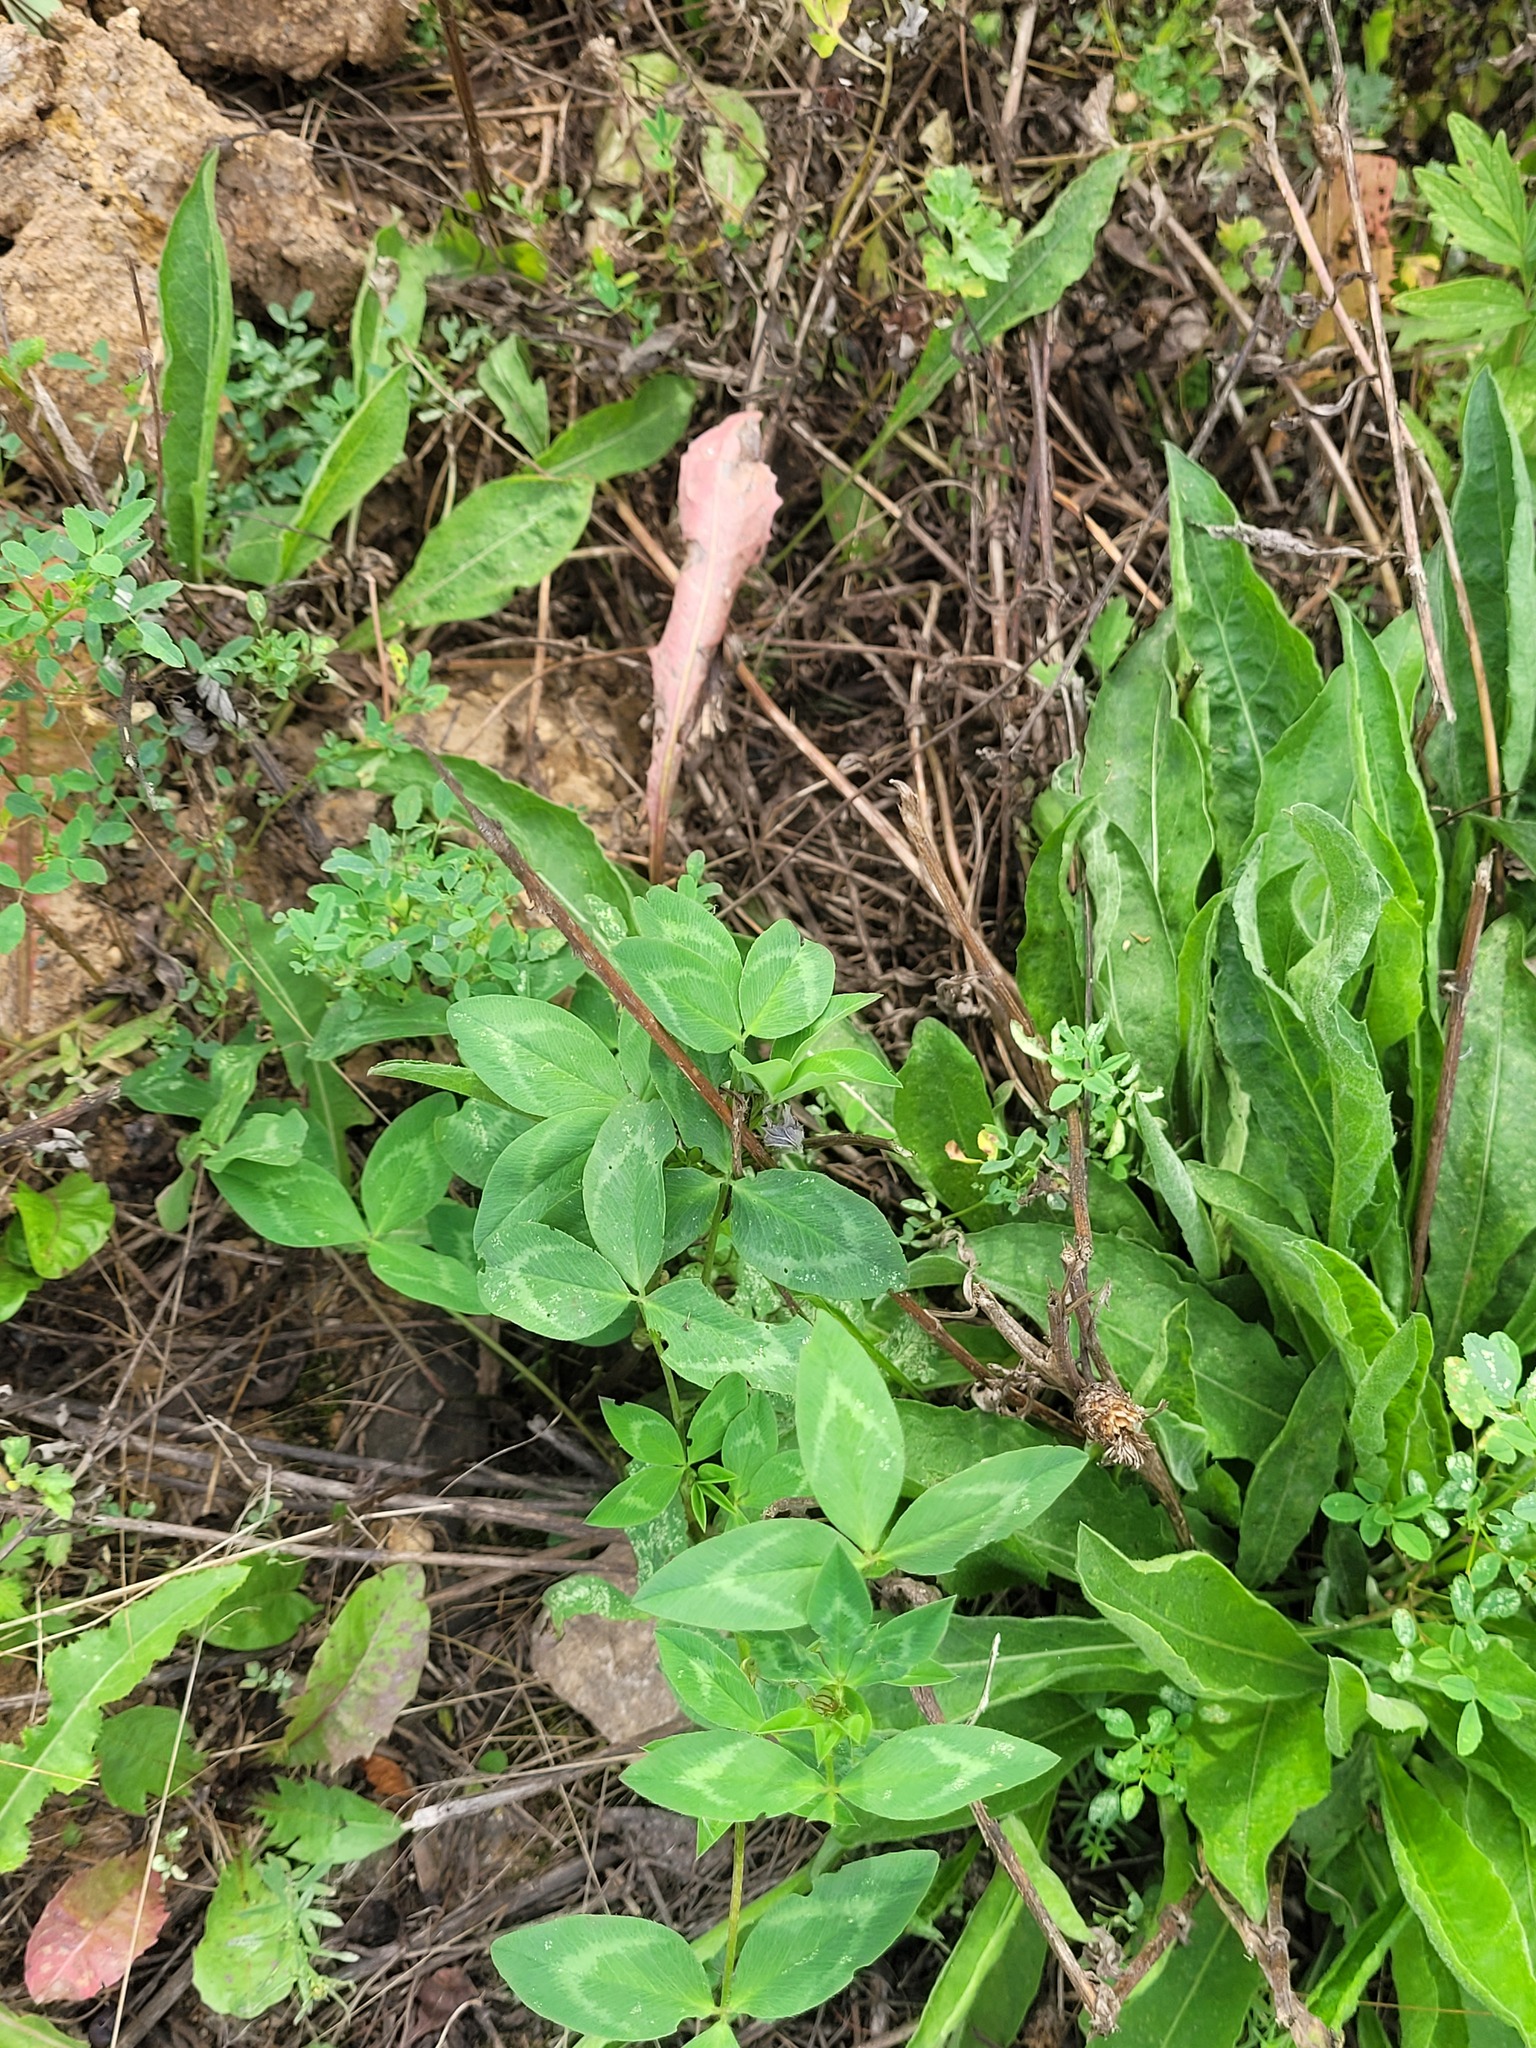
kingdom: Plantae
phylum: Tracheophyta
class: Magnoliopsida
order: Fabales
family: Fabaceae
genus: Trifolium
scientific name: Trifolium pratense
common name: Red clover
